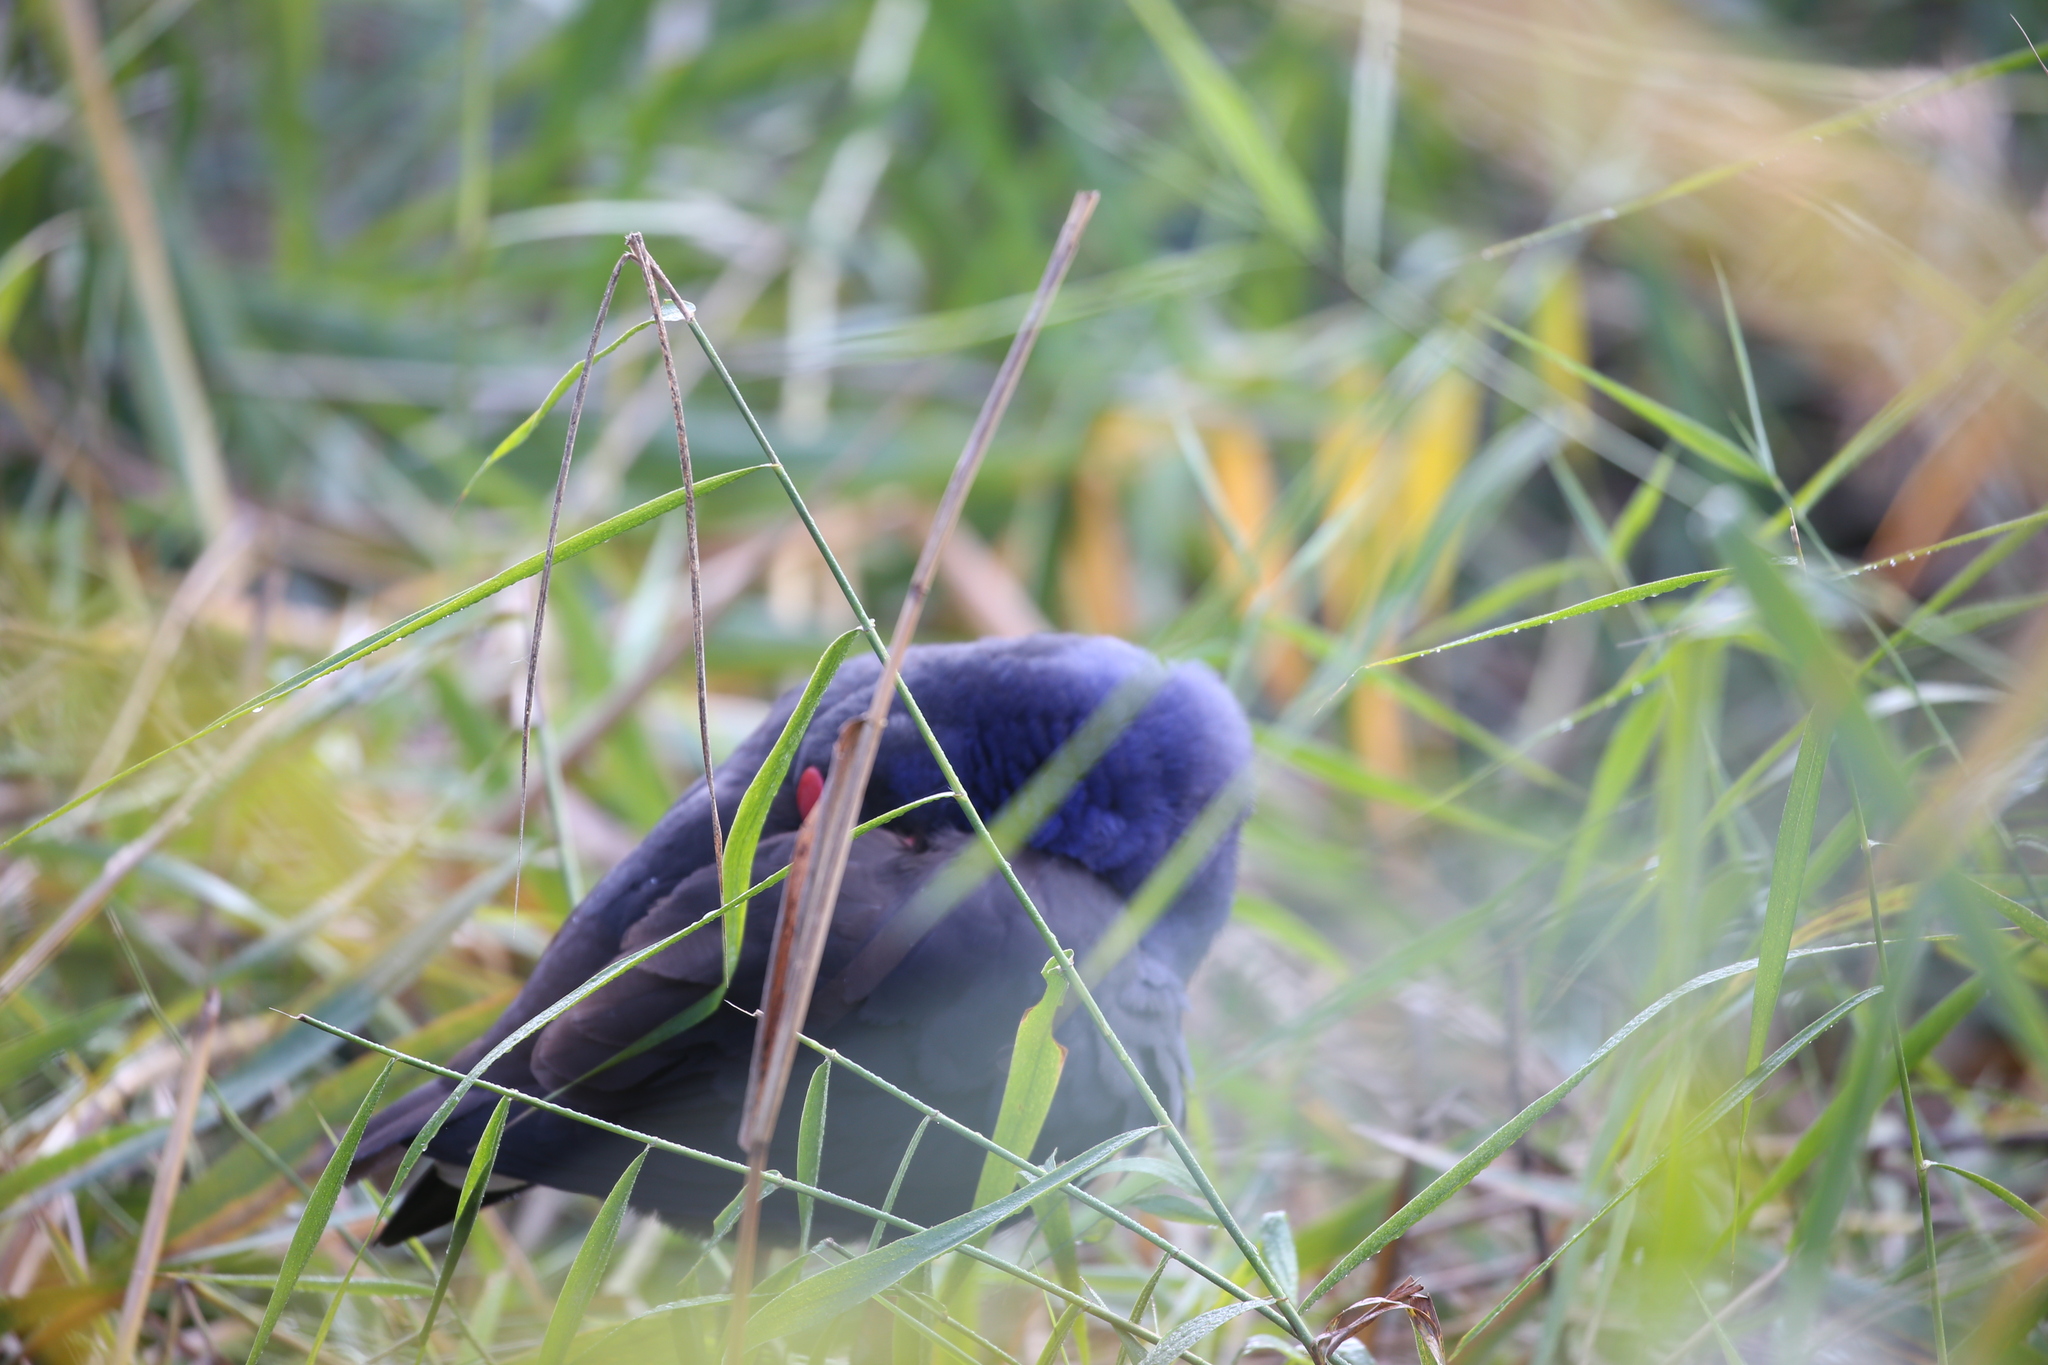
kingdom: Animalia
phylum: Chordata
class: Aves
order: Gruiformes
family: Rallidae
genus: Porphyrio
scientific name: Porphyrio melanotus
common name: Australasian swamphen
